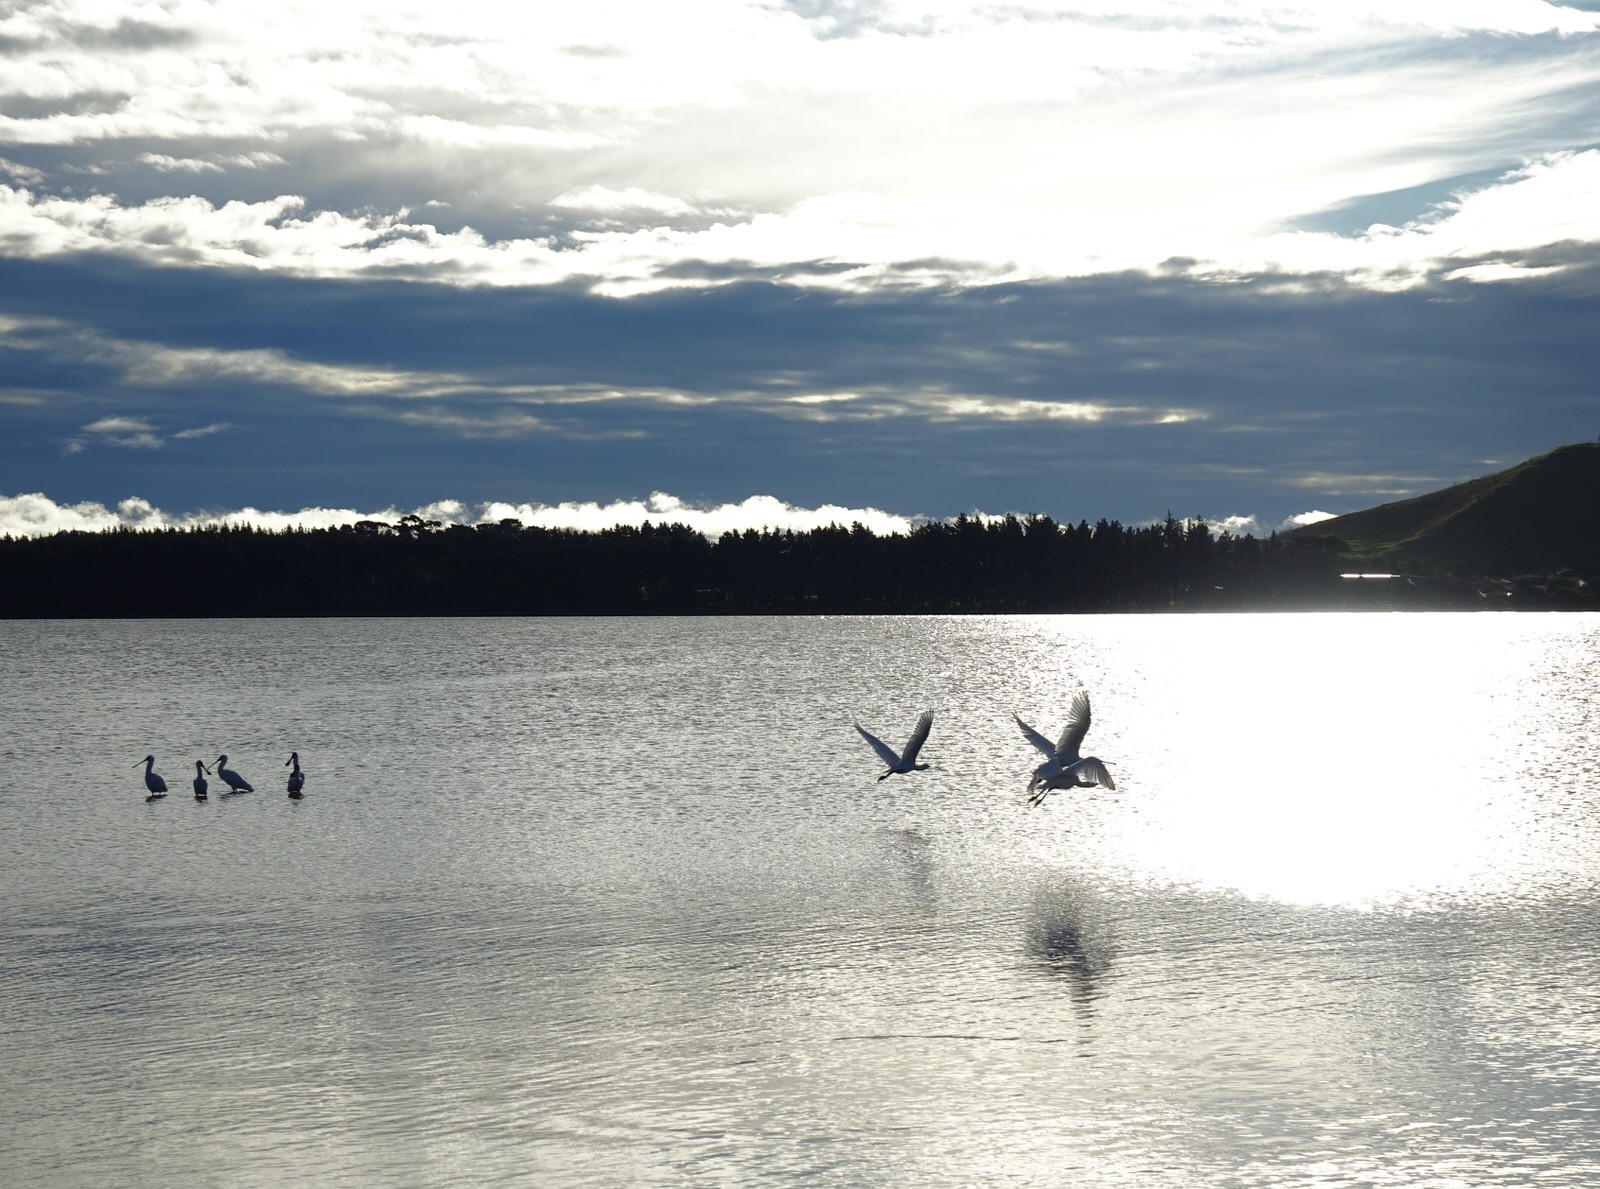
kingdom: Animalia
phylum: Chordata
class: Aves
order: Pelecaniformes
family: Threskiornithidae
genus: Platalea
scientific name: Platalea regia
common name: Royal spoonbill
